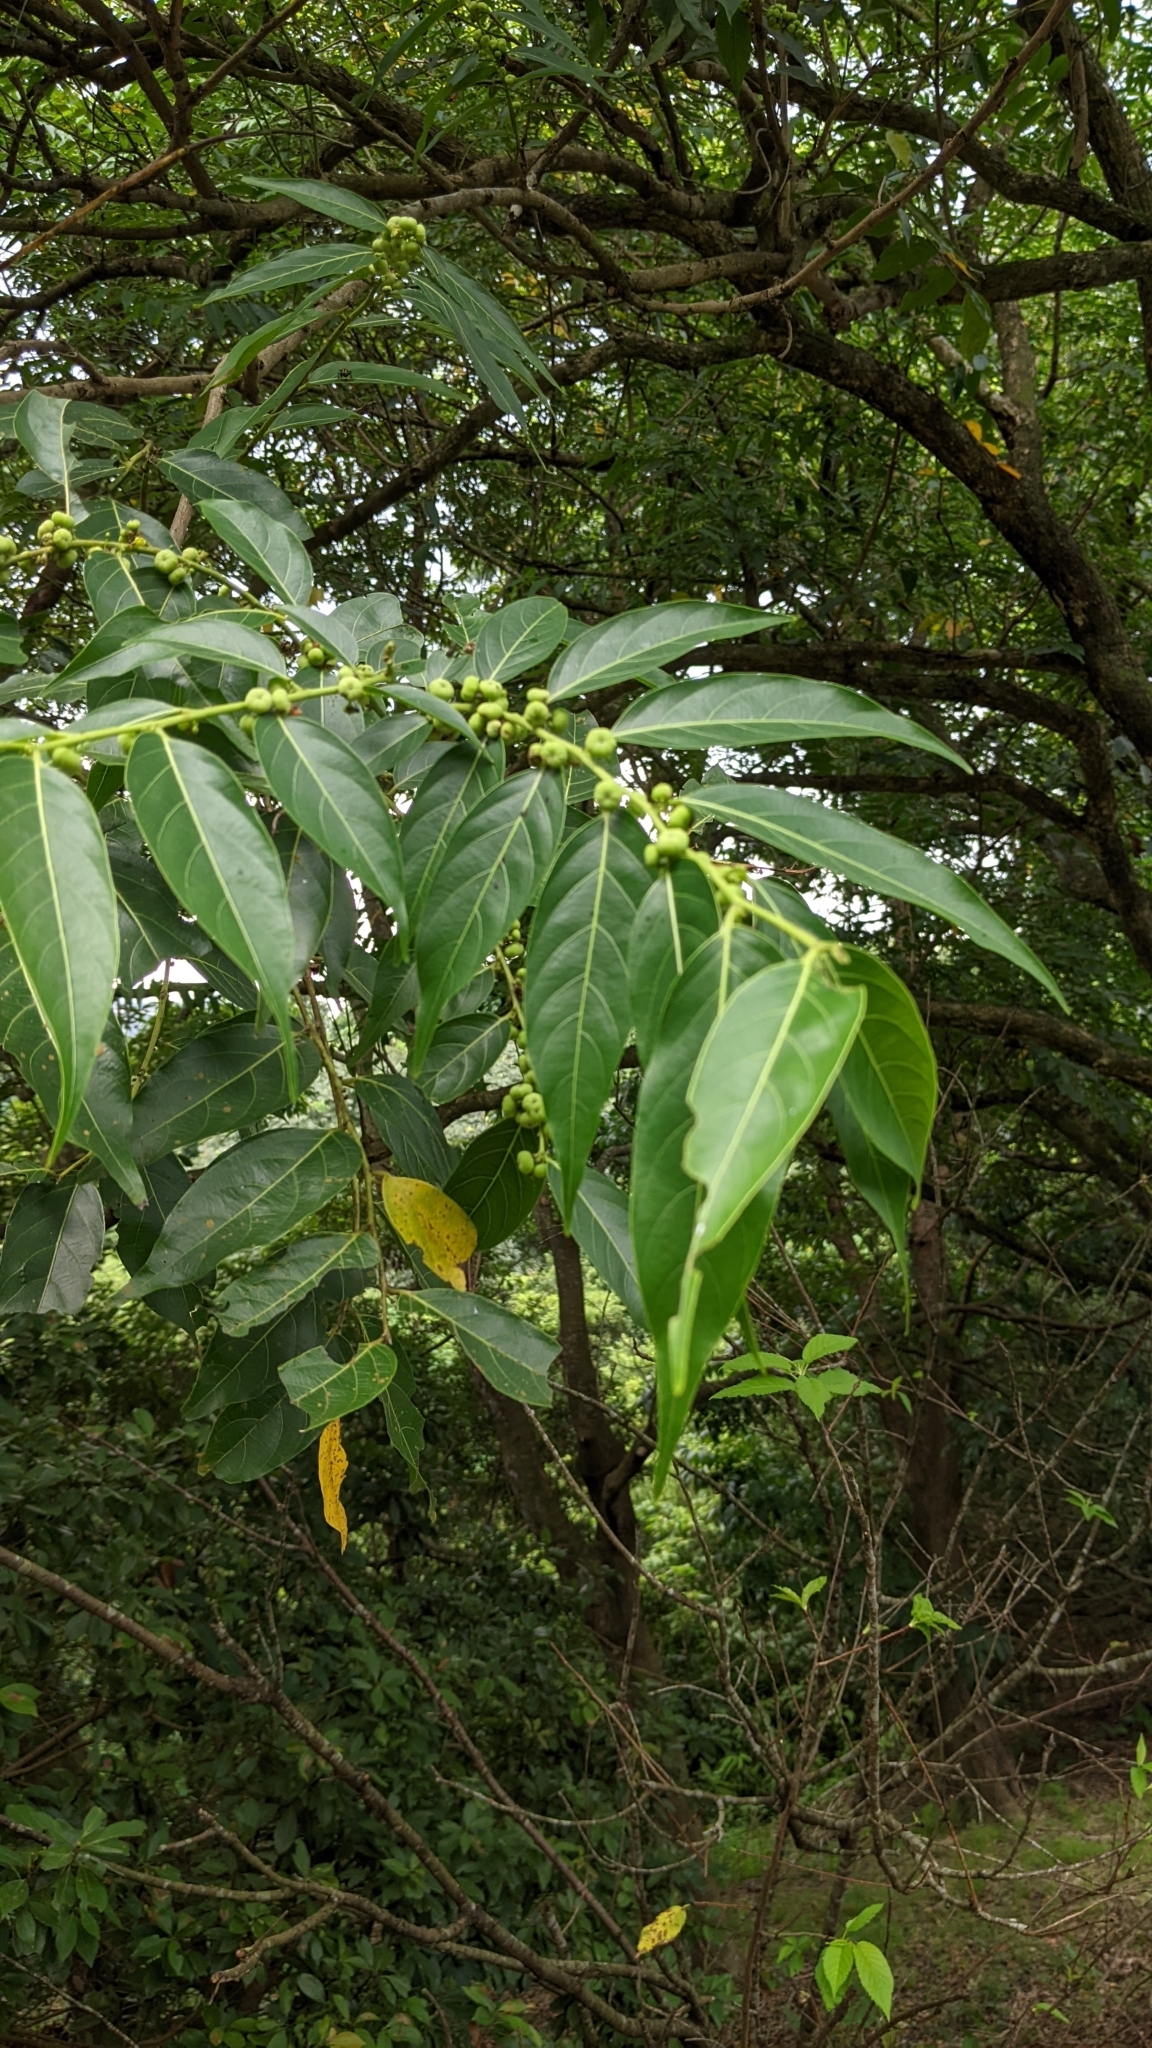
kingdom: Plantae
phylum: Tracheophyta
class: Magnoliopsida
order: Malpighiales
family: Phyllanthaceae
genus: Glochidion
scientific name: Glochidion lanceolatum
